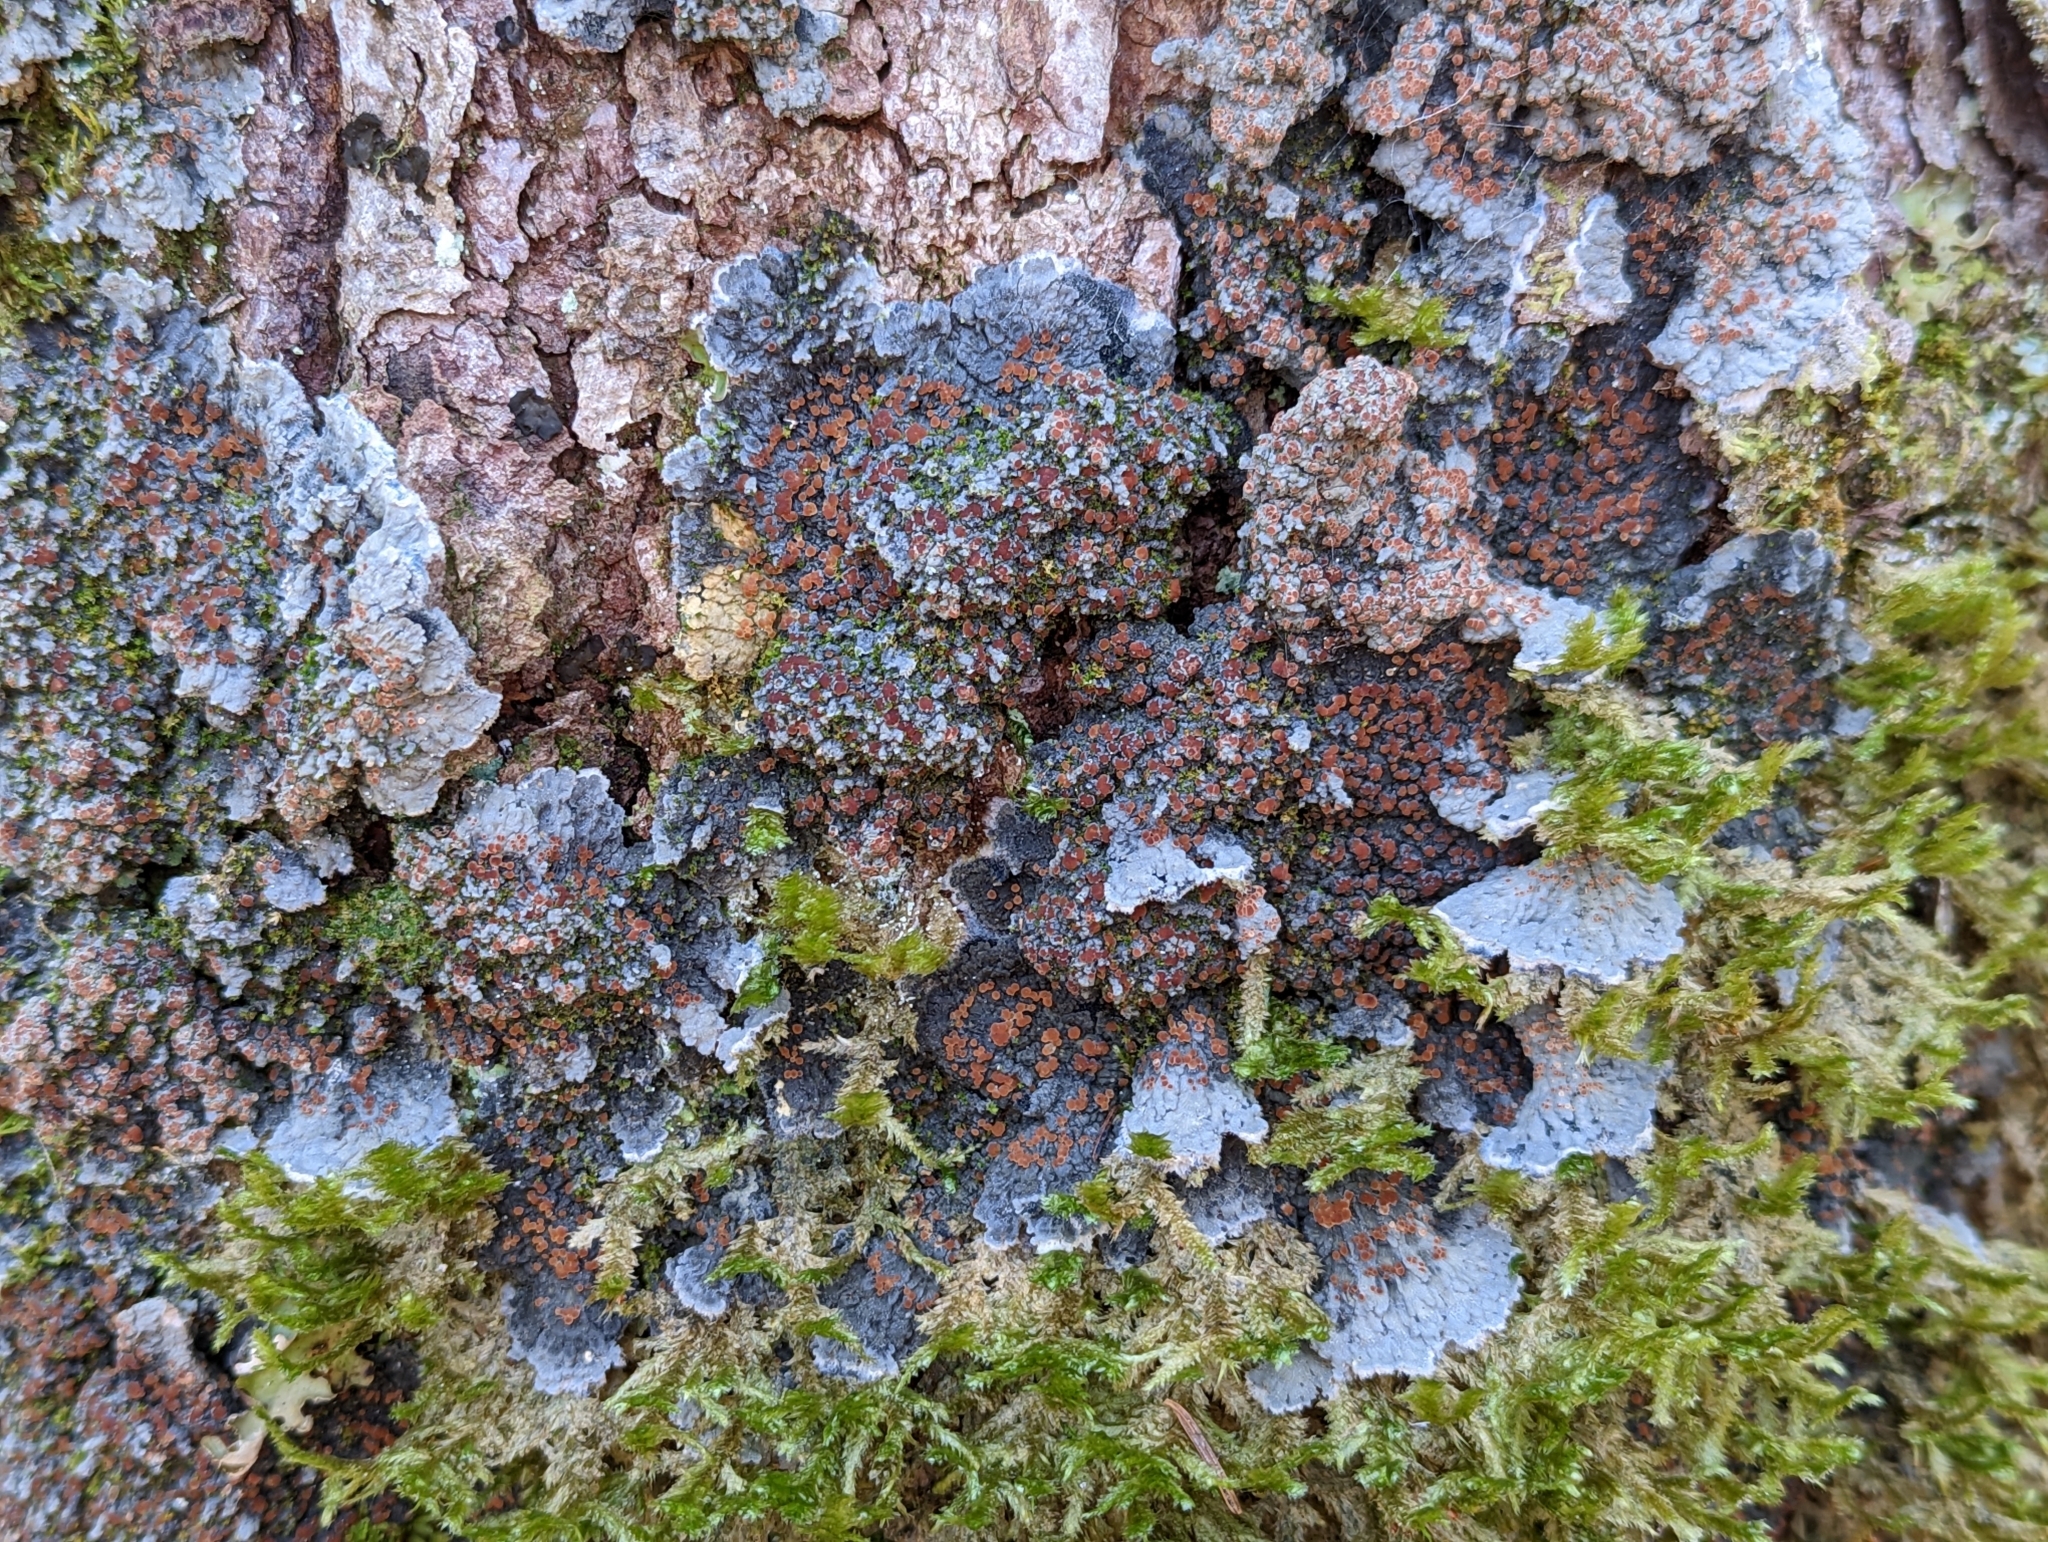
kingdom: Fungi
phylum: Ascomycota
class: Lecanoromycetes
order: Peltigerales
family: Pannariaceae
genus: Pectenia
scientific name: Pectenia plumbea
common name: Bladder stalks
